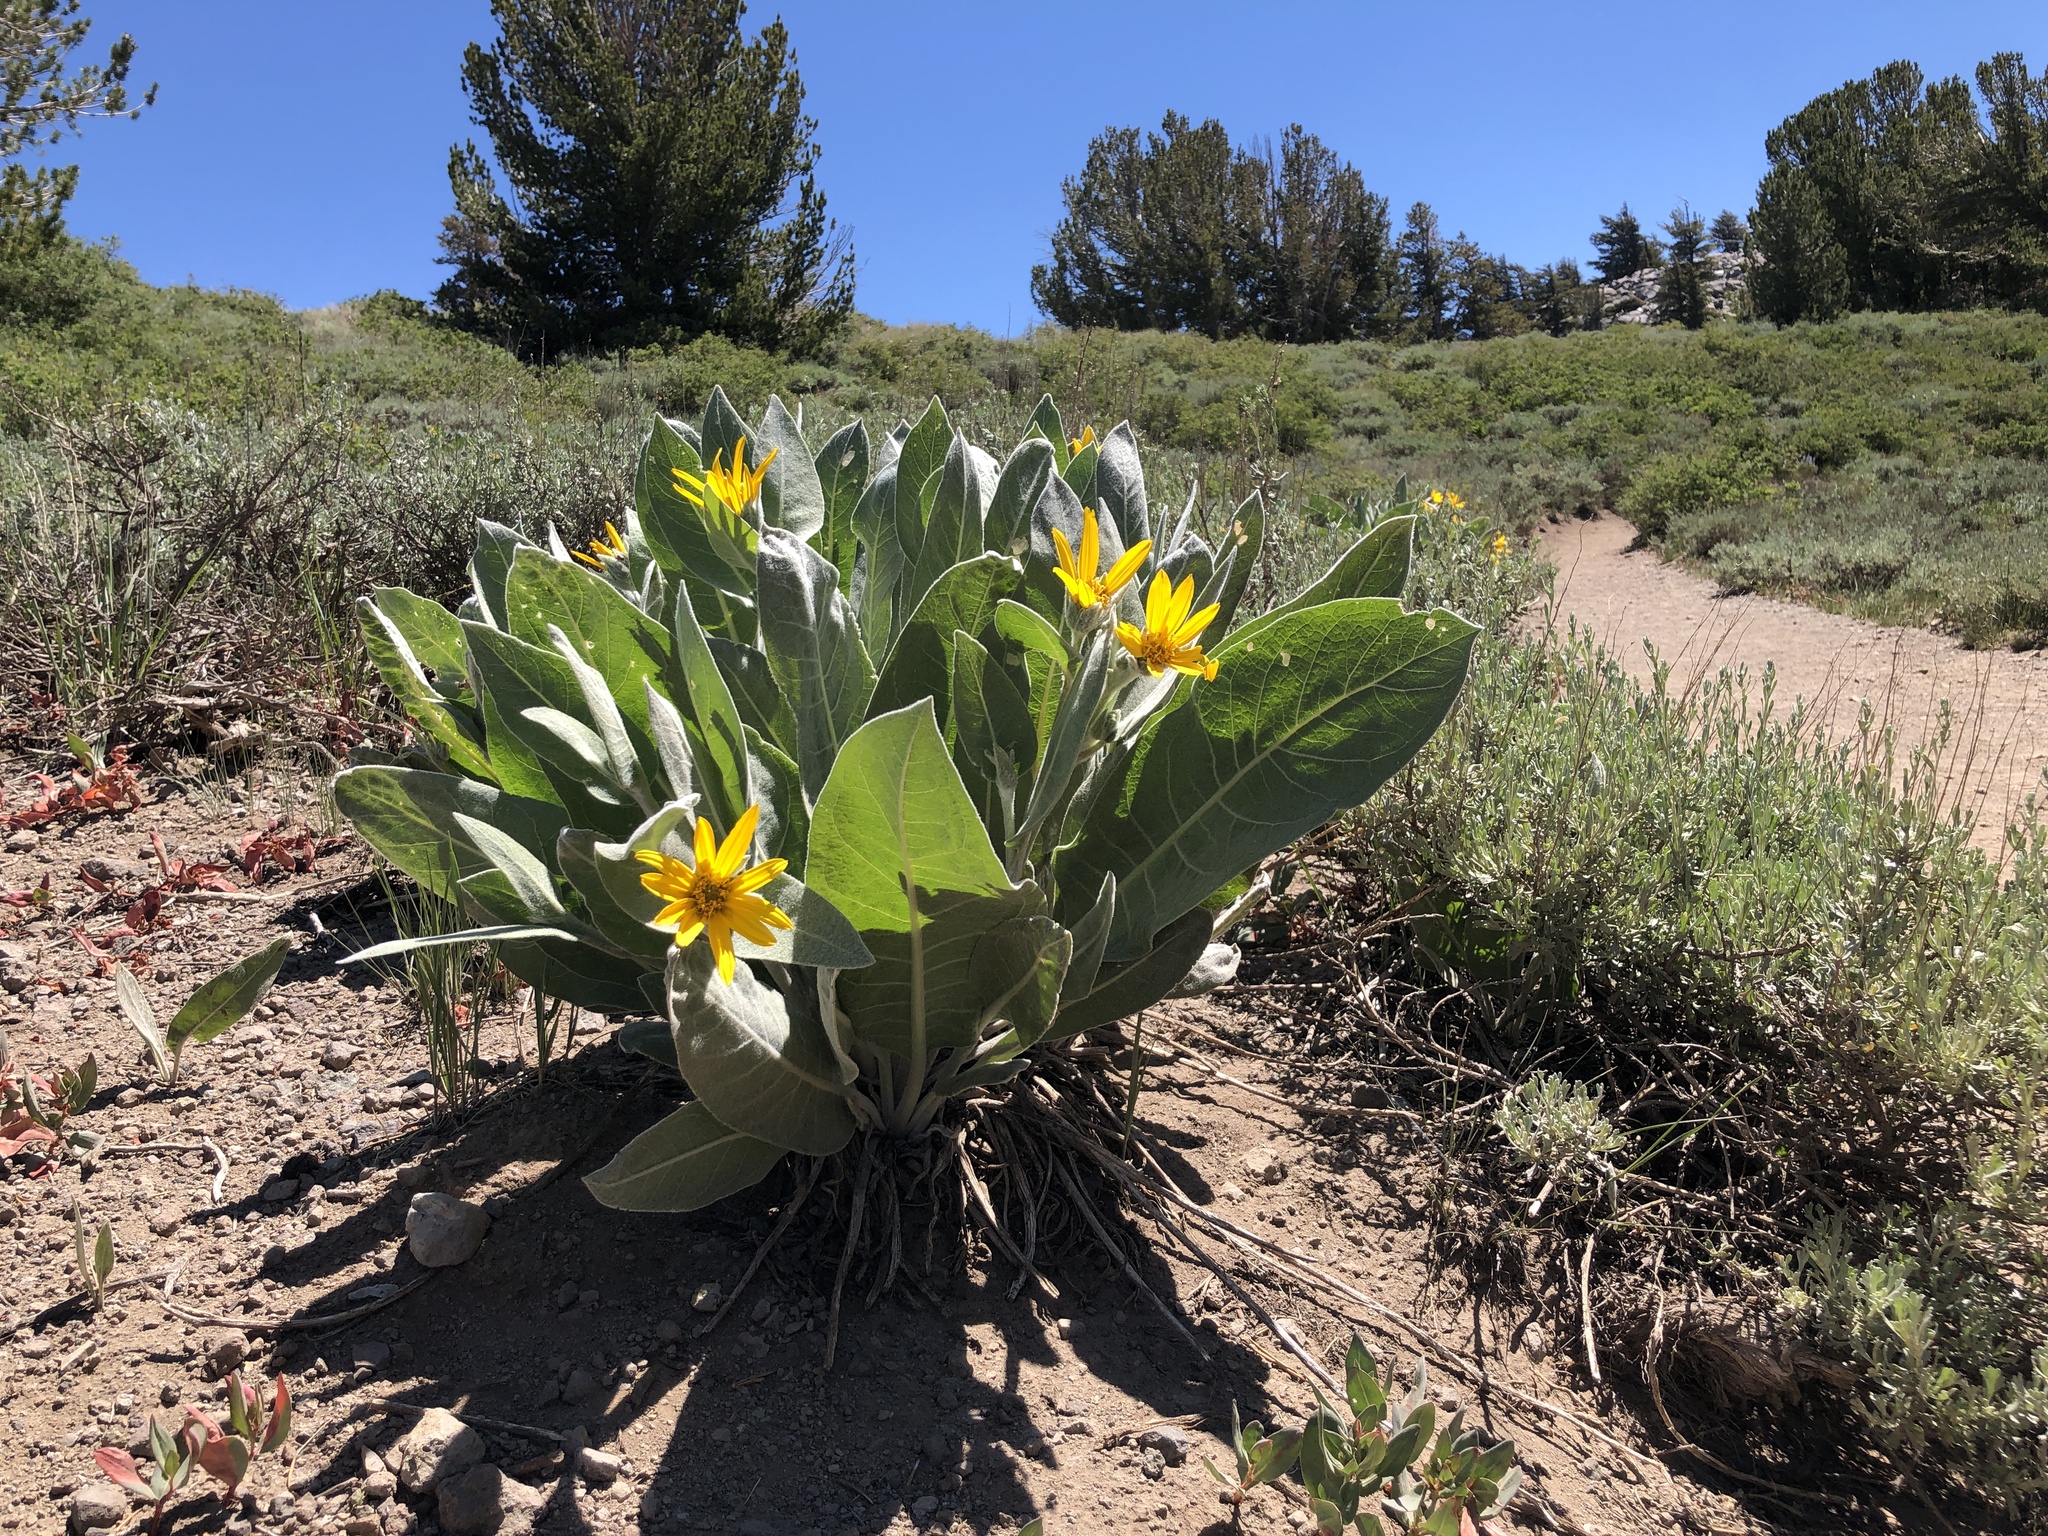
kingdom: Plantae
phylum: Tracheophyta
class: Magnoliopsida
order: Asterales
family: Asteraceae
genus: Wyethia
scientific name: Wyethia mollis
